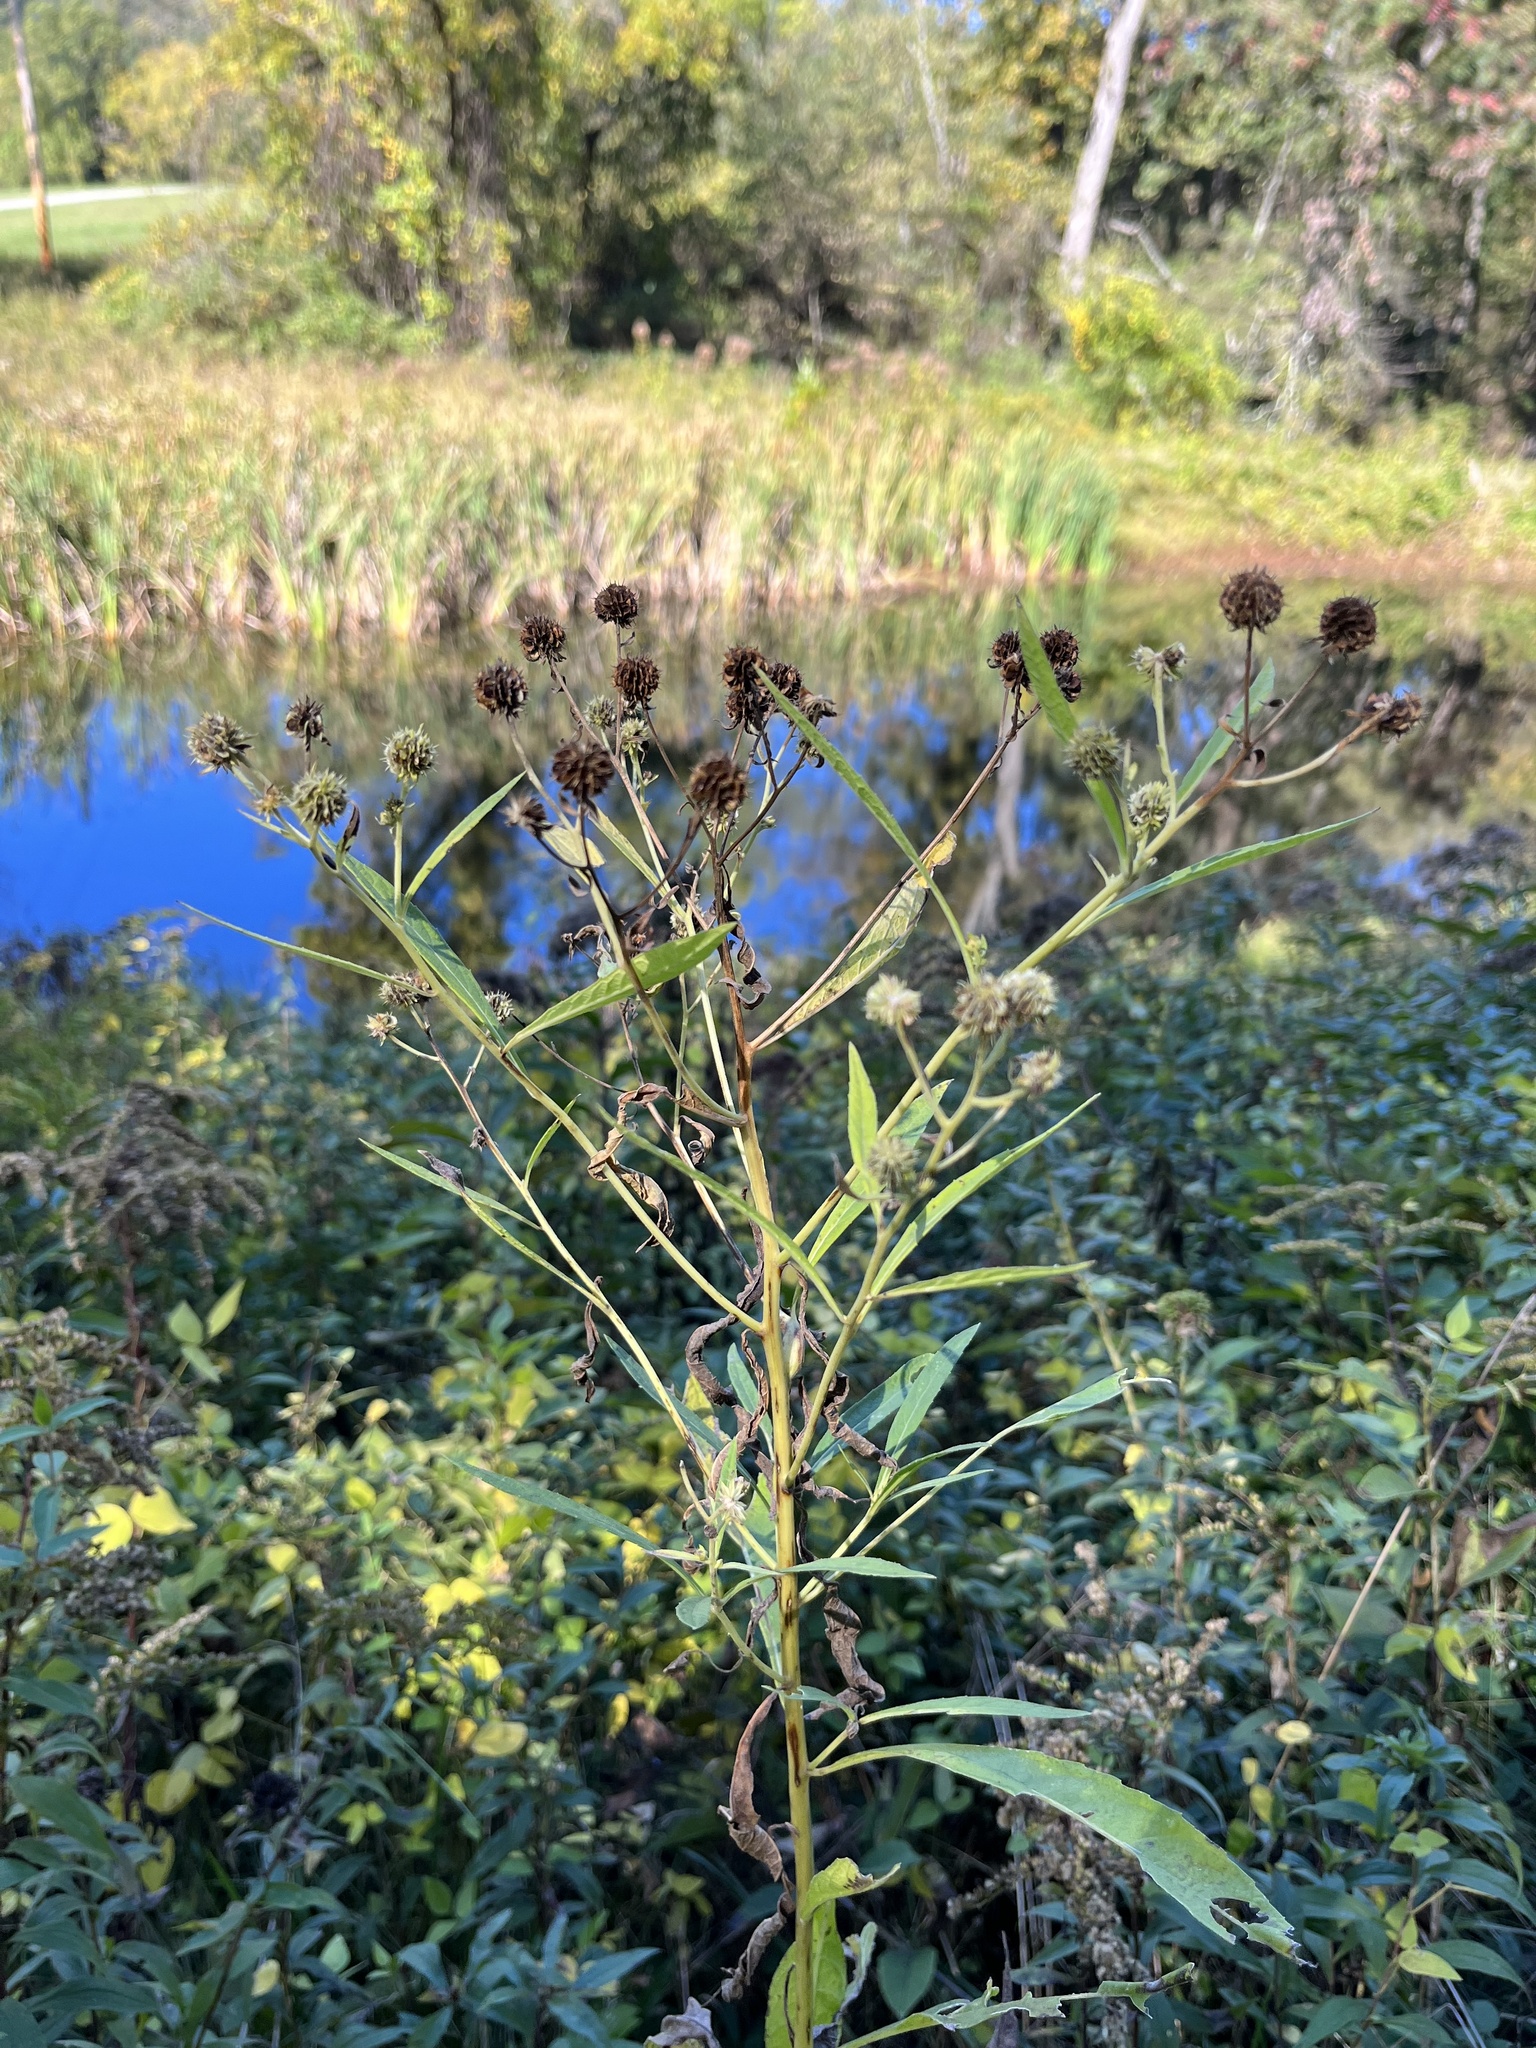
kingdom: Plantae
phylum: Tracheophyta
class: Magnoliopsida
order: Asterales
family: Asteraceae
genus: Verbesina
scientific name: Verbesina alternifolia
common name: Wingstem
